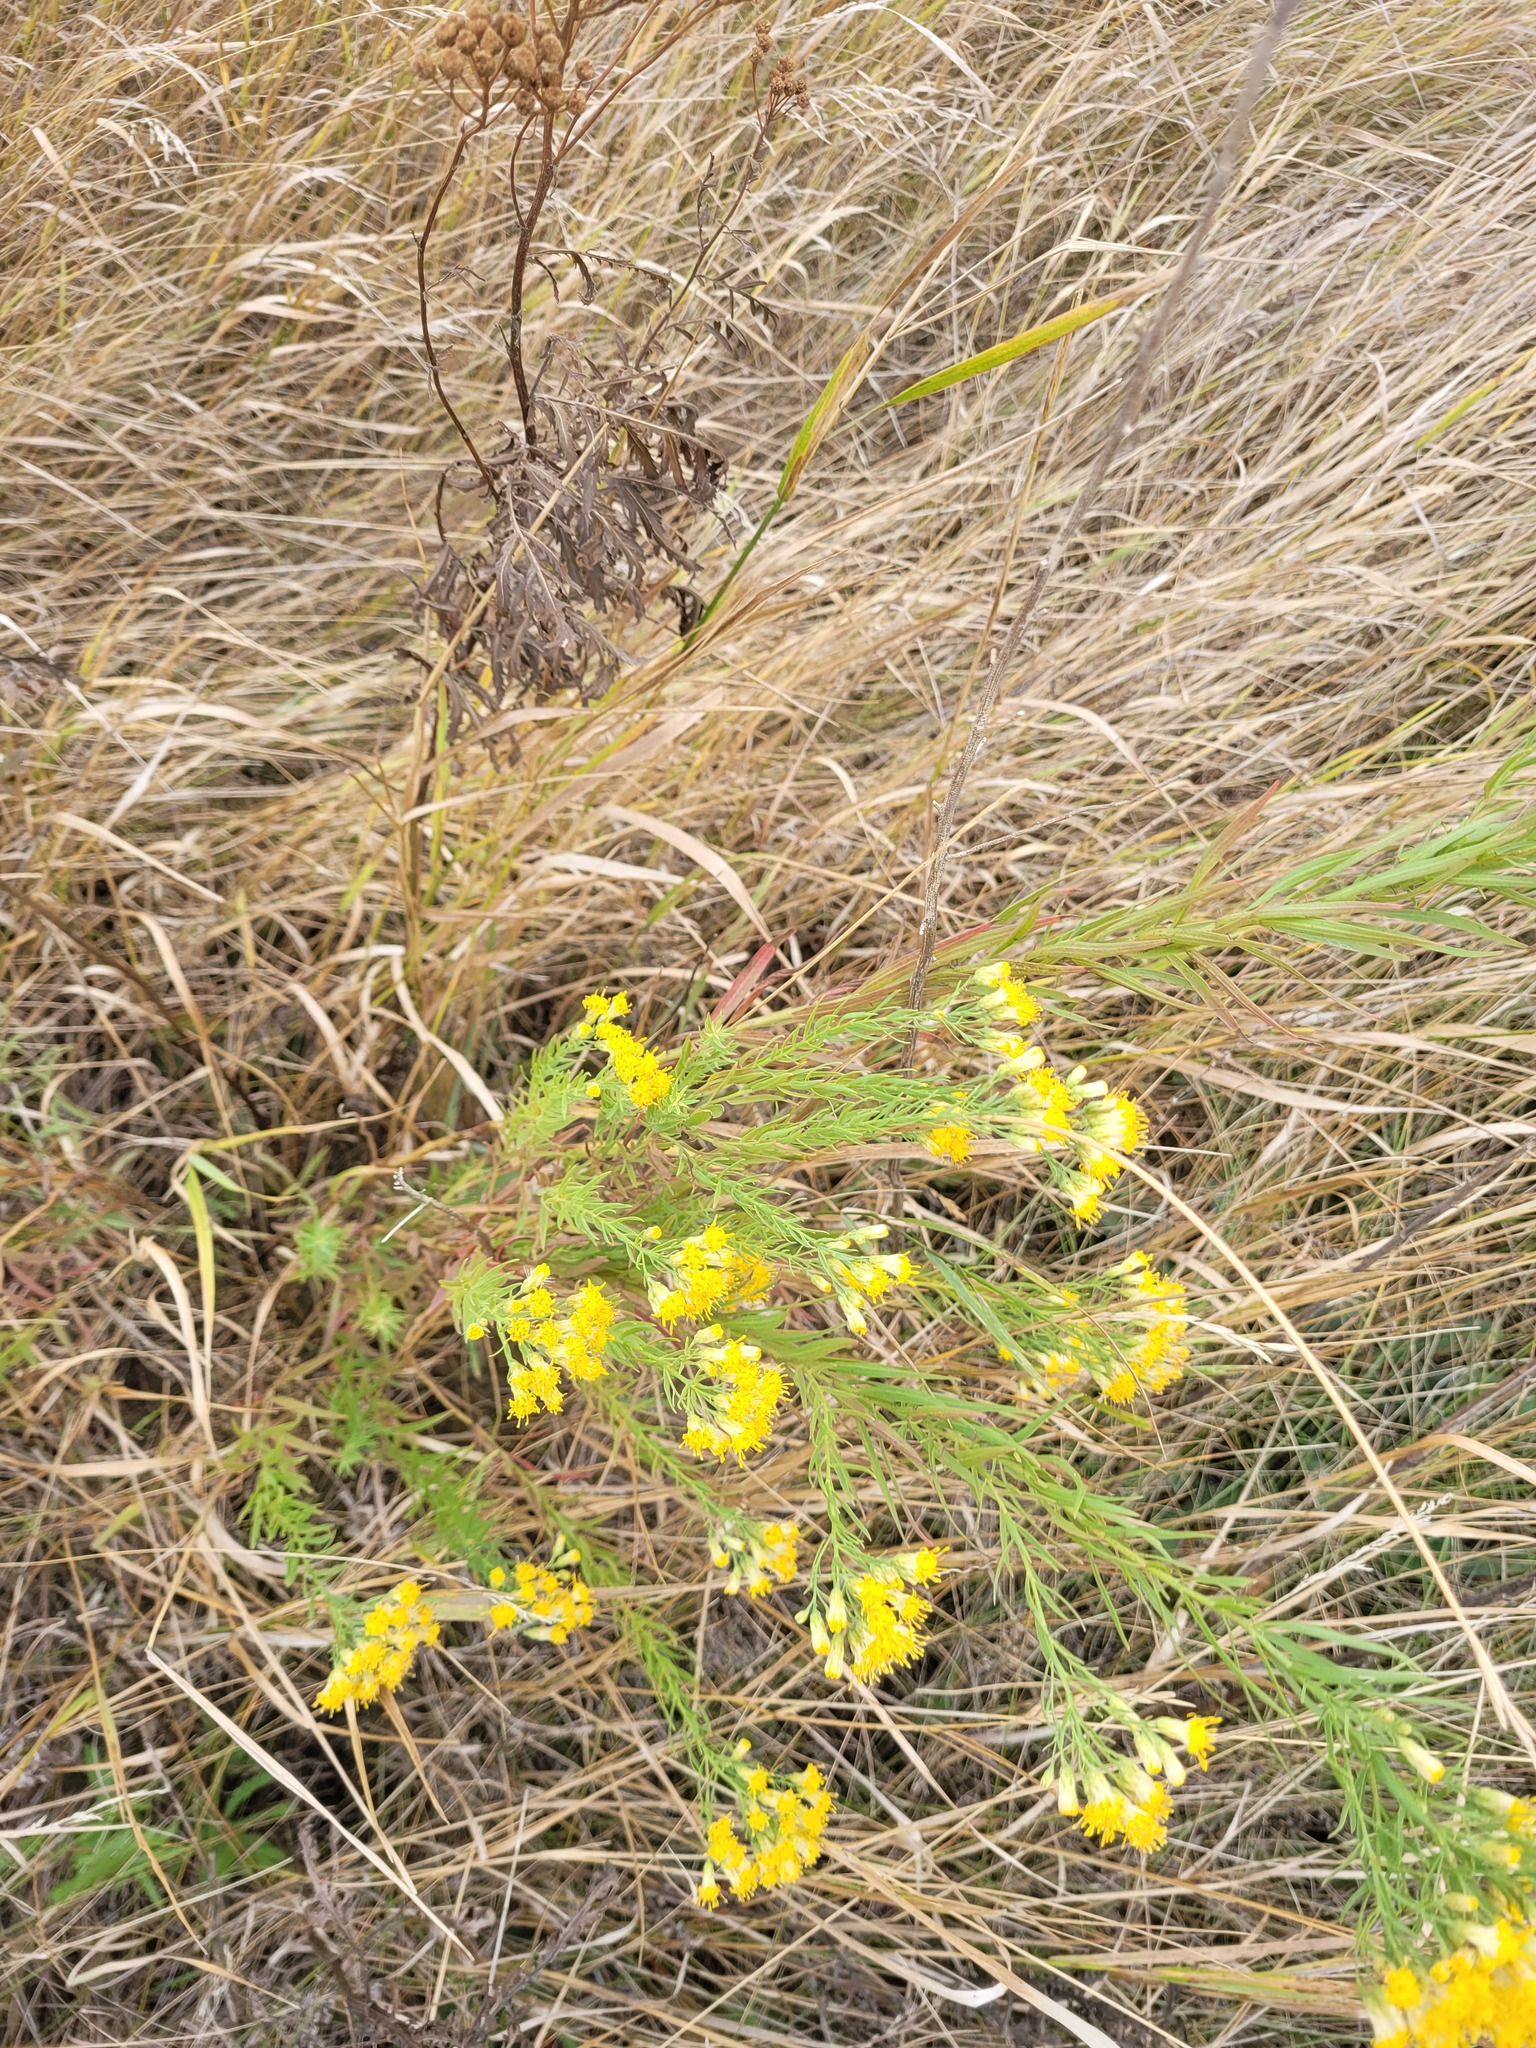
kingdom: Plantae
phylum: Tracheophyta
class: Magnoliopsida
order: Asterales
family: Asteraceae
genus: Galatella
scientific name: Galatella biflora
